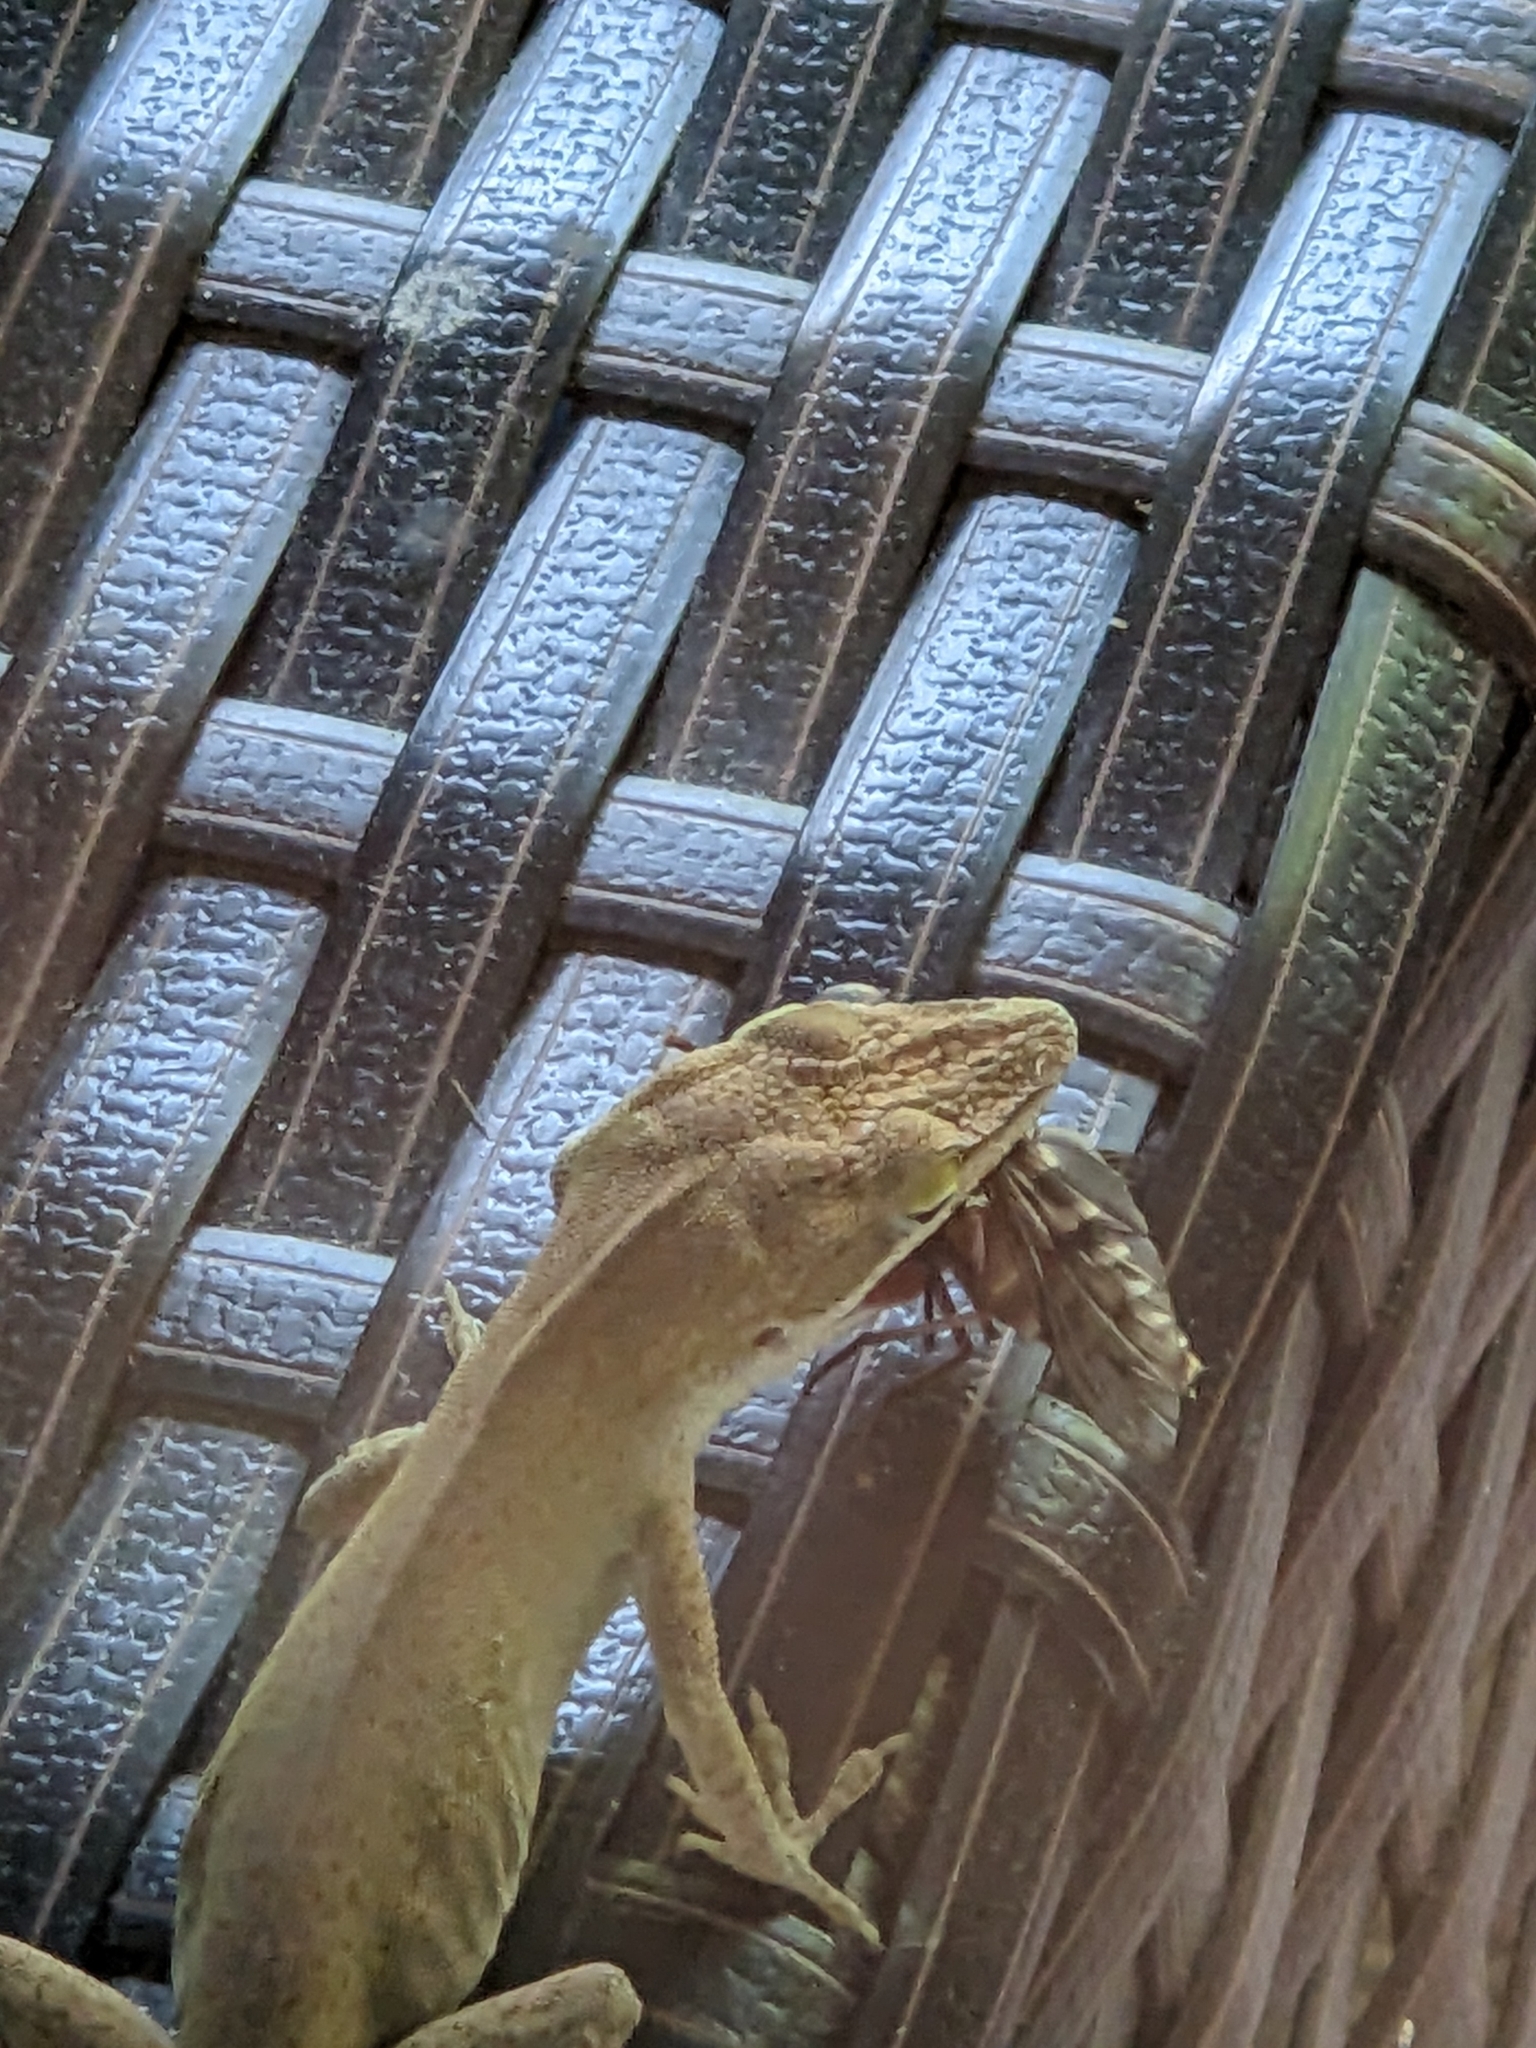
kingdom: Animalia
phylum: Chordata
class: Squamata
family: Dactyloidae
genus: Anolis
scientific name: Anolis carolinensis
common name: Green anole
